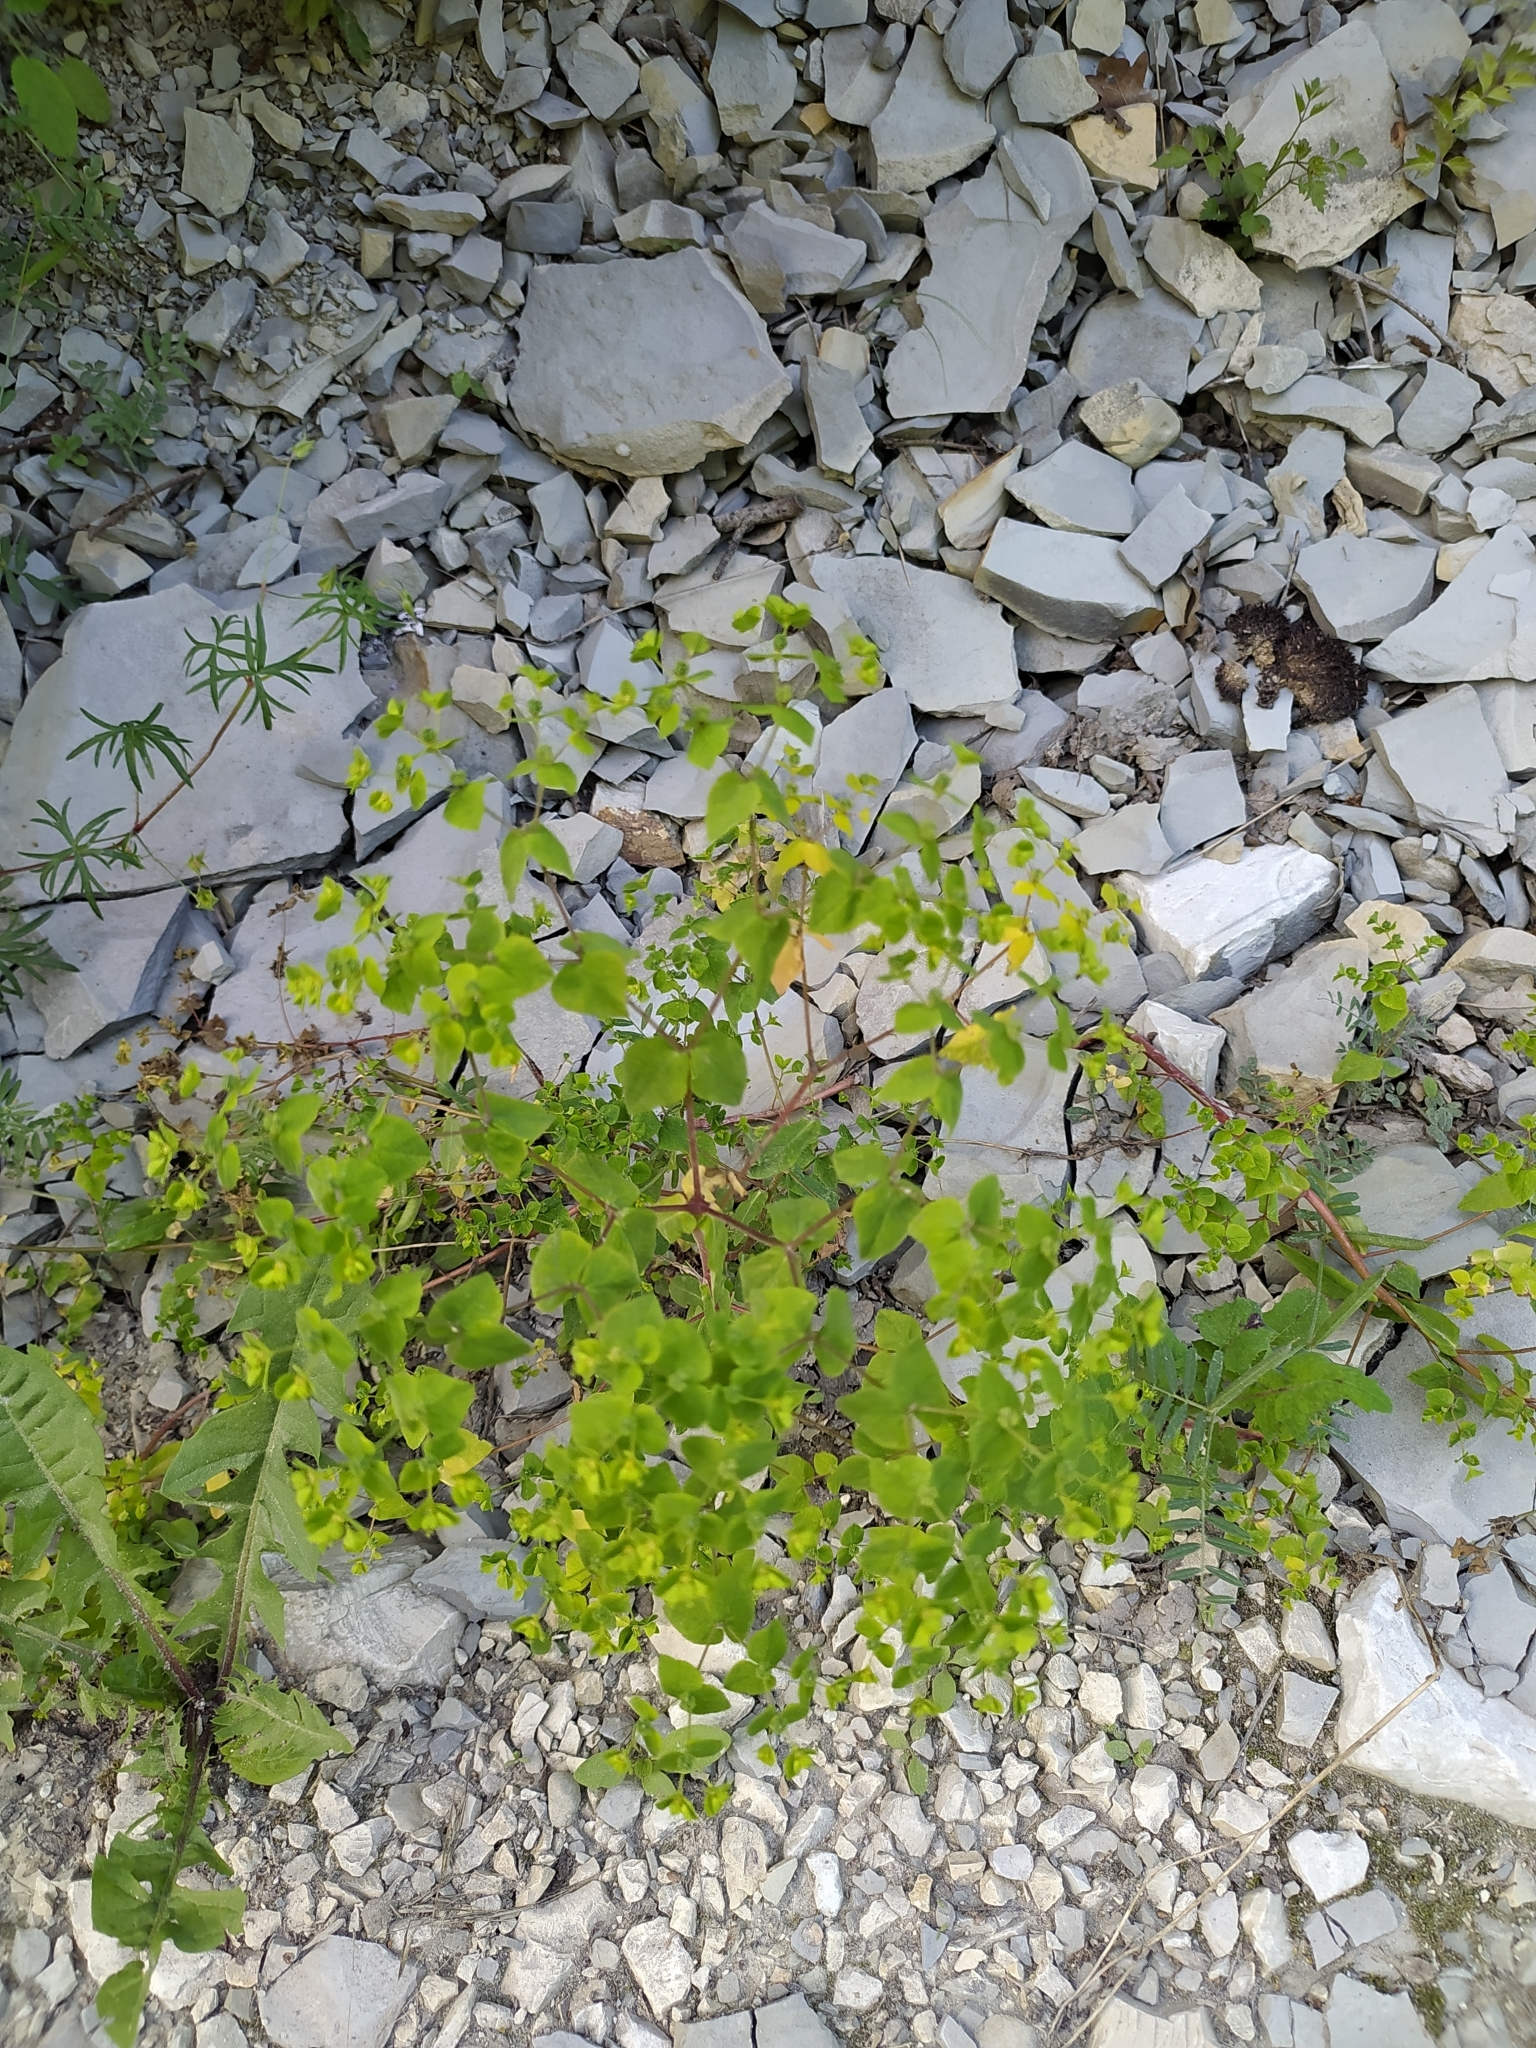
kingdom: Plantae
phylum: Tracheophyta
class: Magnoliopsida
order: Malpighiales
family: Euphorbiaceae
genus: Euphorbia
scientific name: Euphorbia peplus
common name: Petty spurge
